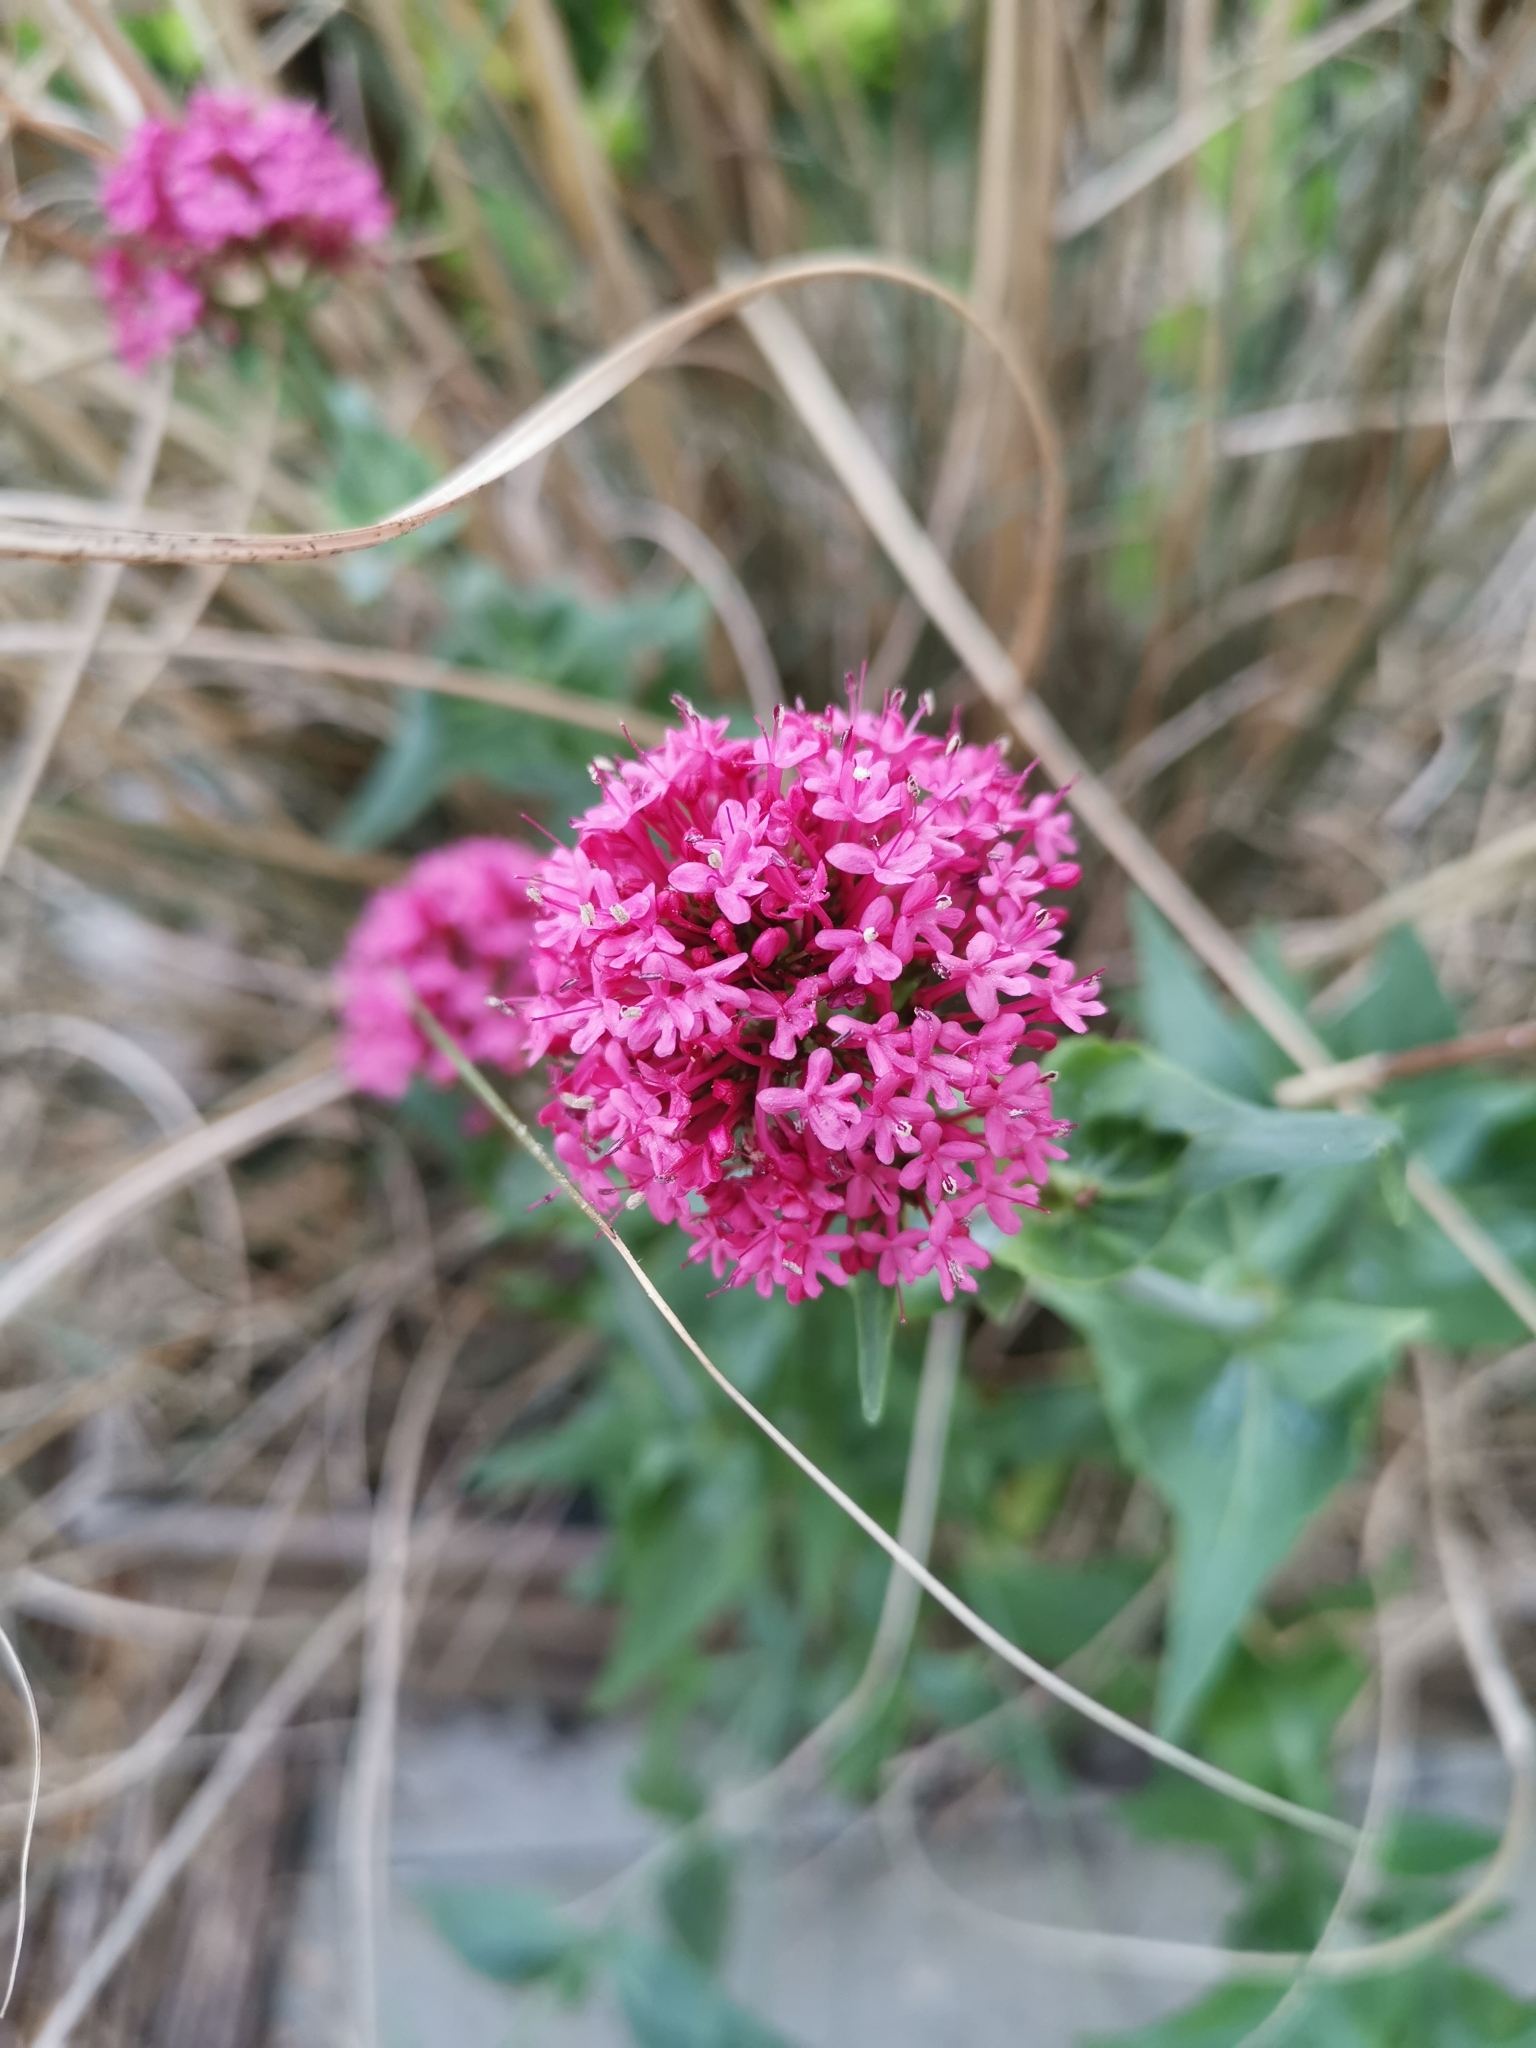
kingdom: Plantae
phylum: Tracheophyta
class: Magnoliopsida
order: Dipsacales
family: Caprifoliaceae
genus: Centranthus
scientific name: Centranthus ruber
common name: Red valerian
